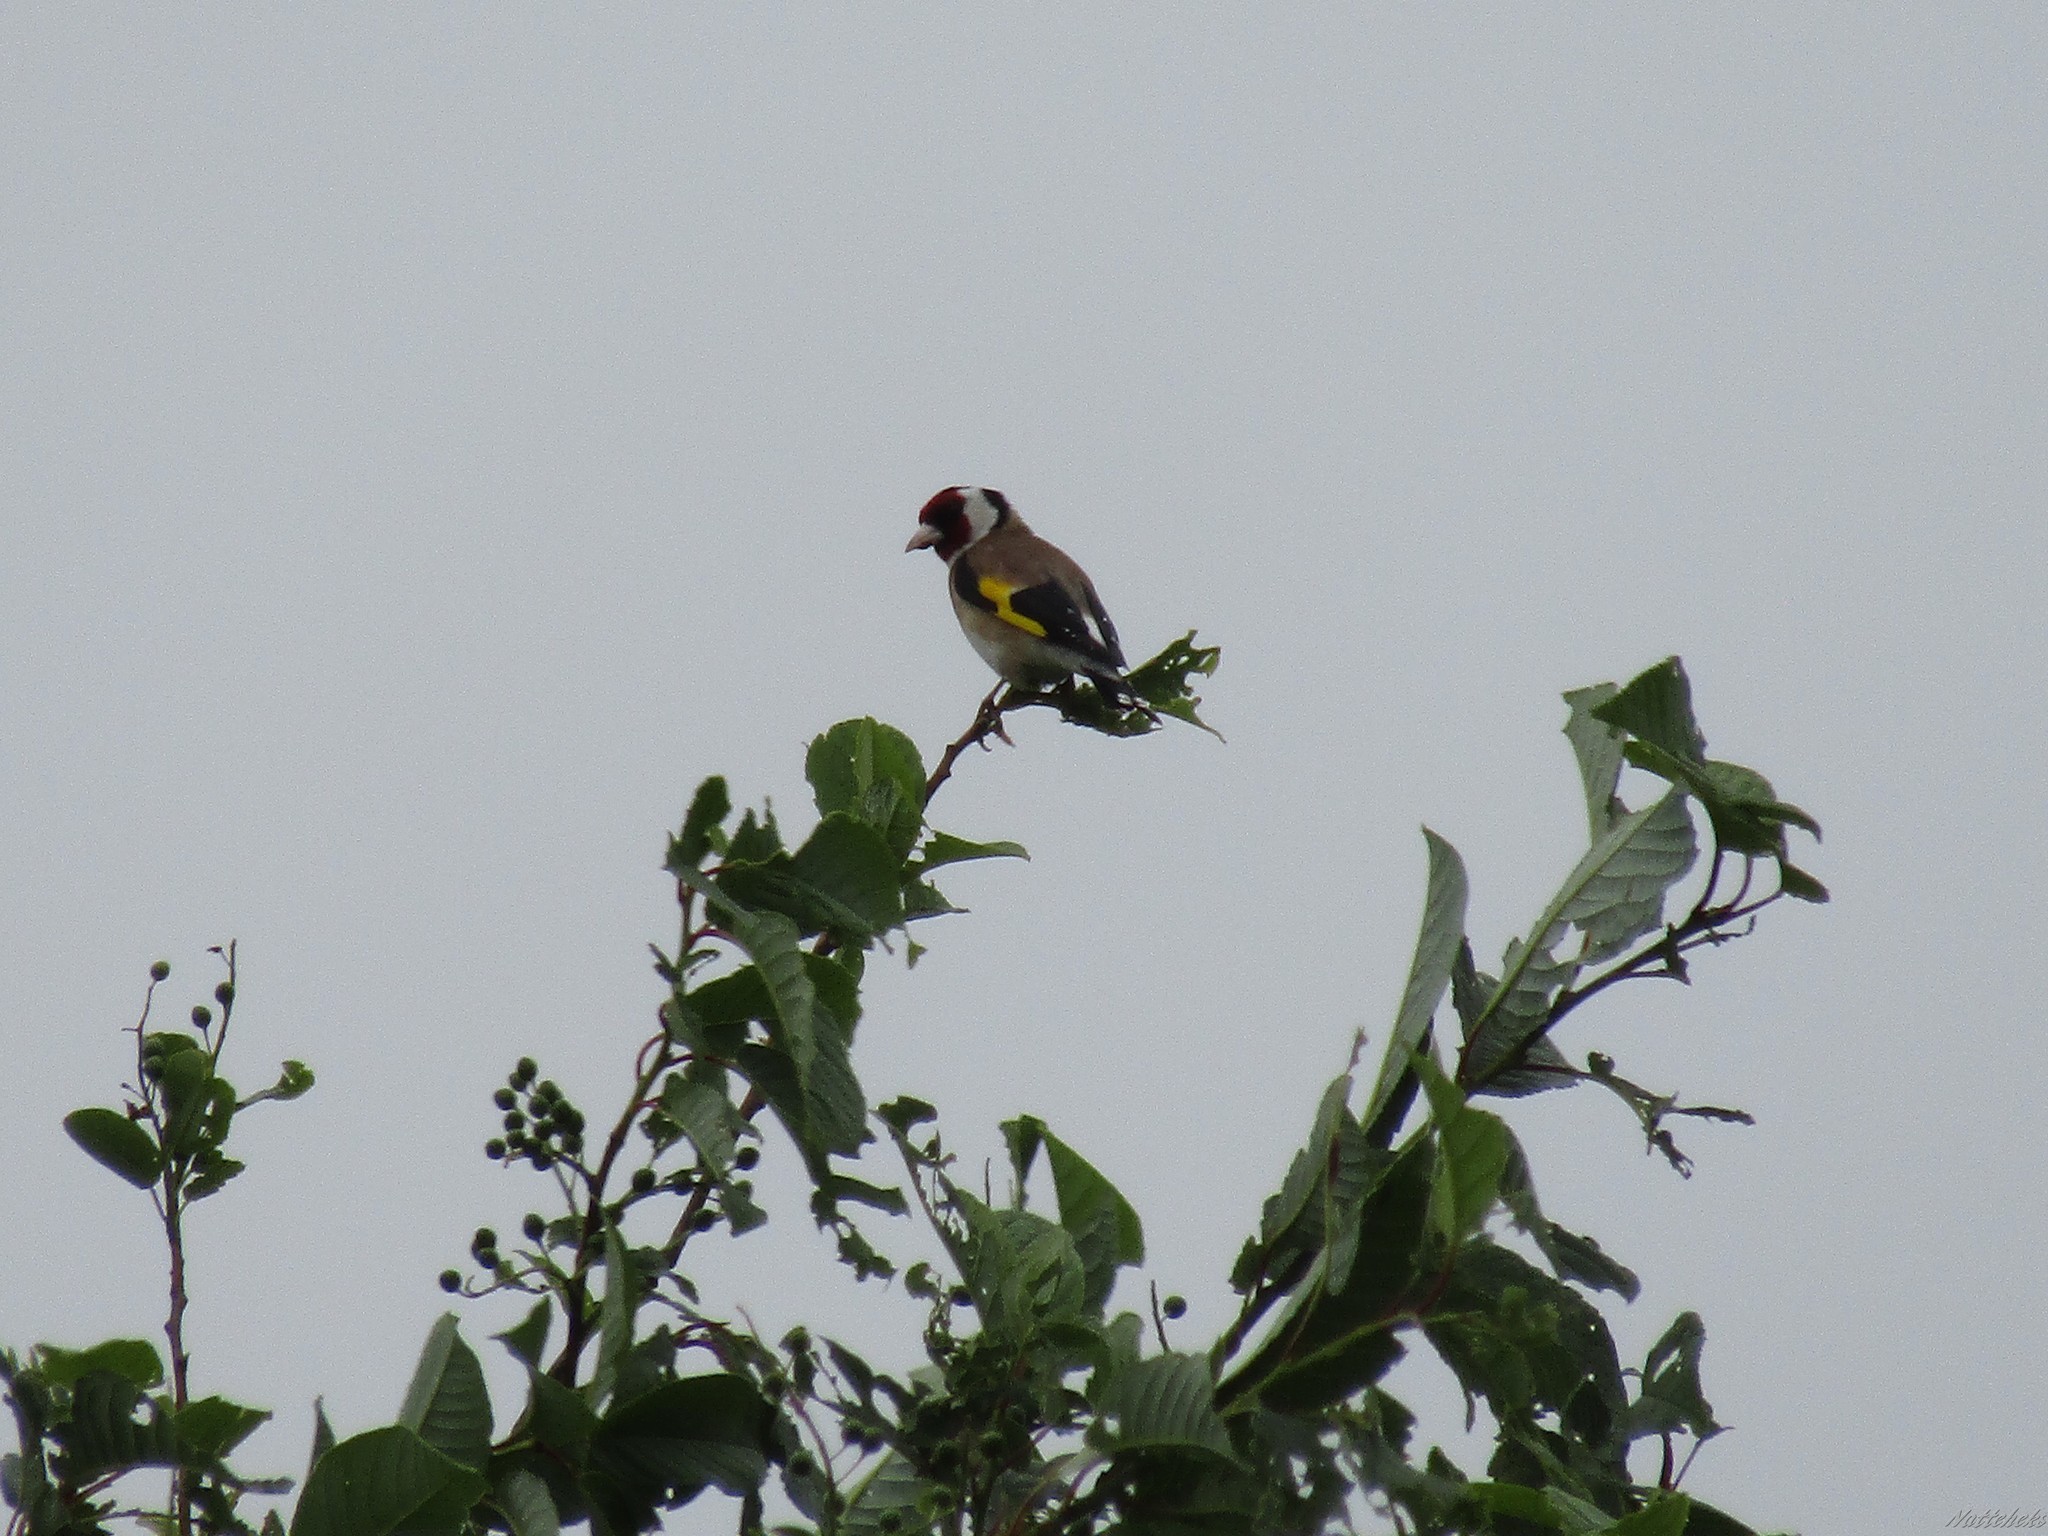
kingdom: Animalia
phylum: Chordata
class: Aves
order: Passeriformes
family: Fringillidae
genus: Carduelis
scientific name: Carduelis carduelis
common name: European goldfinch
